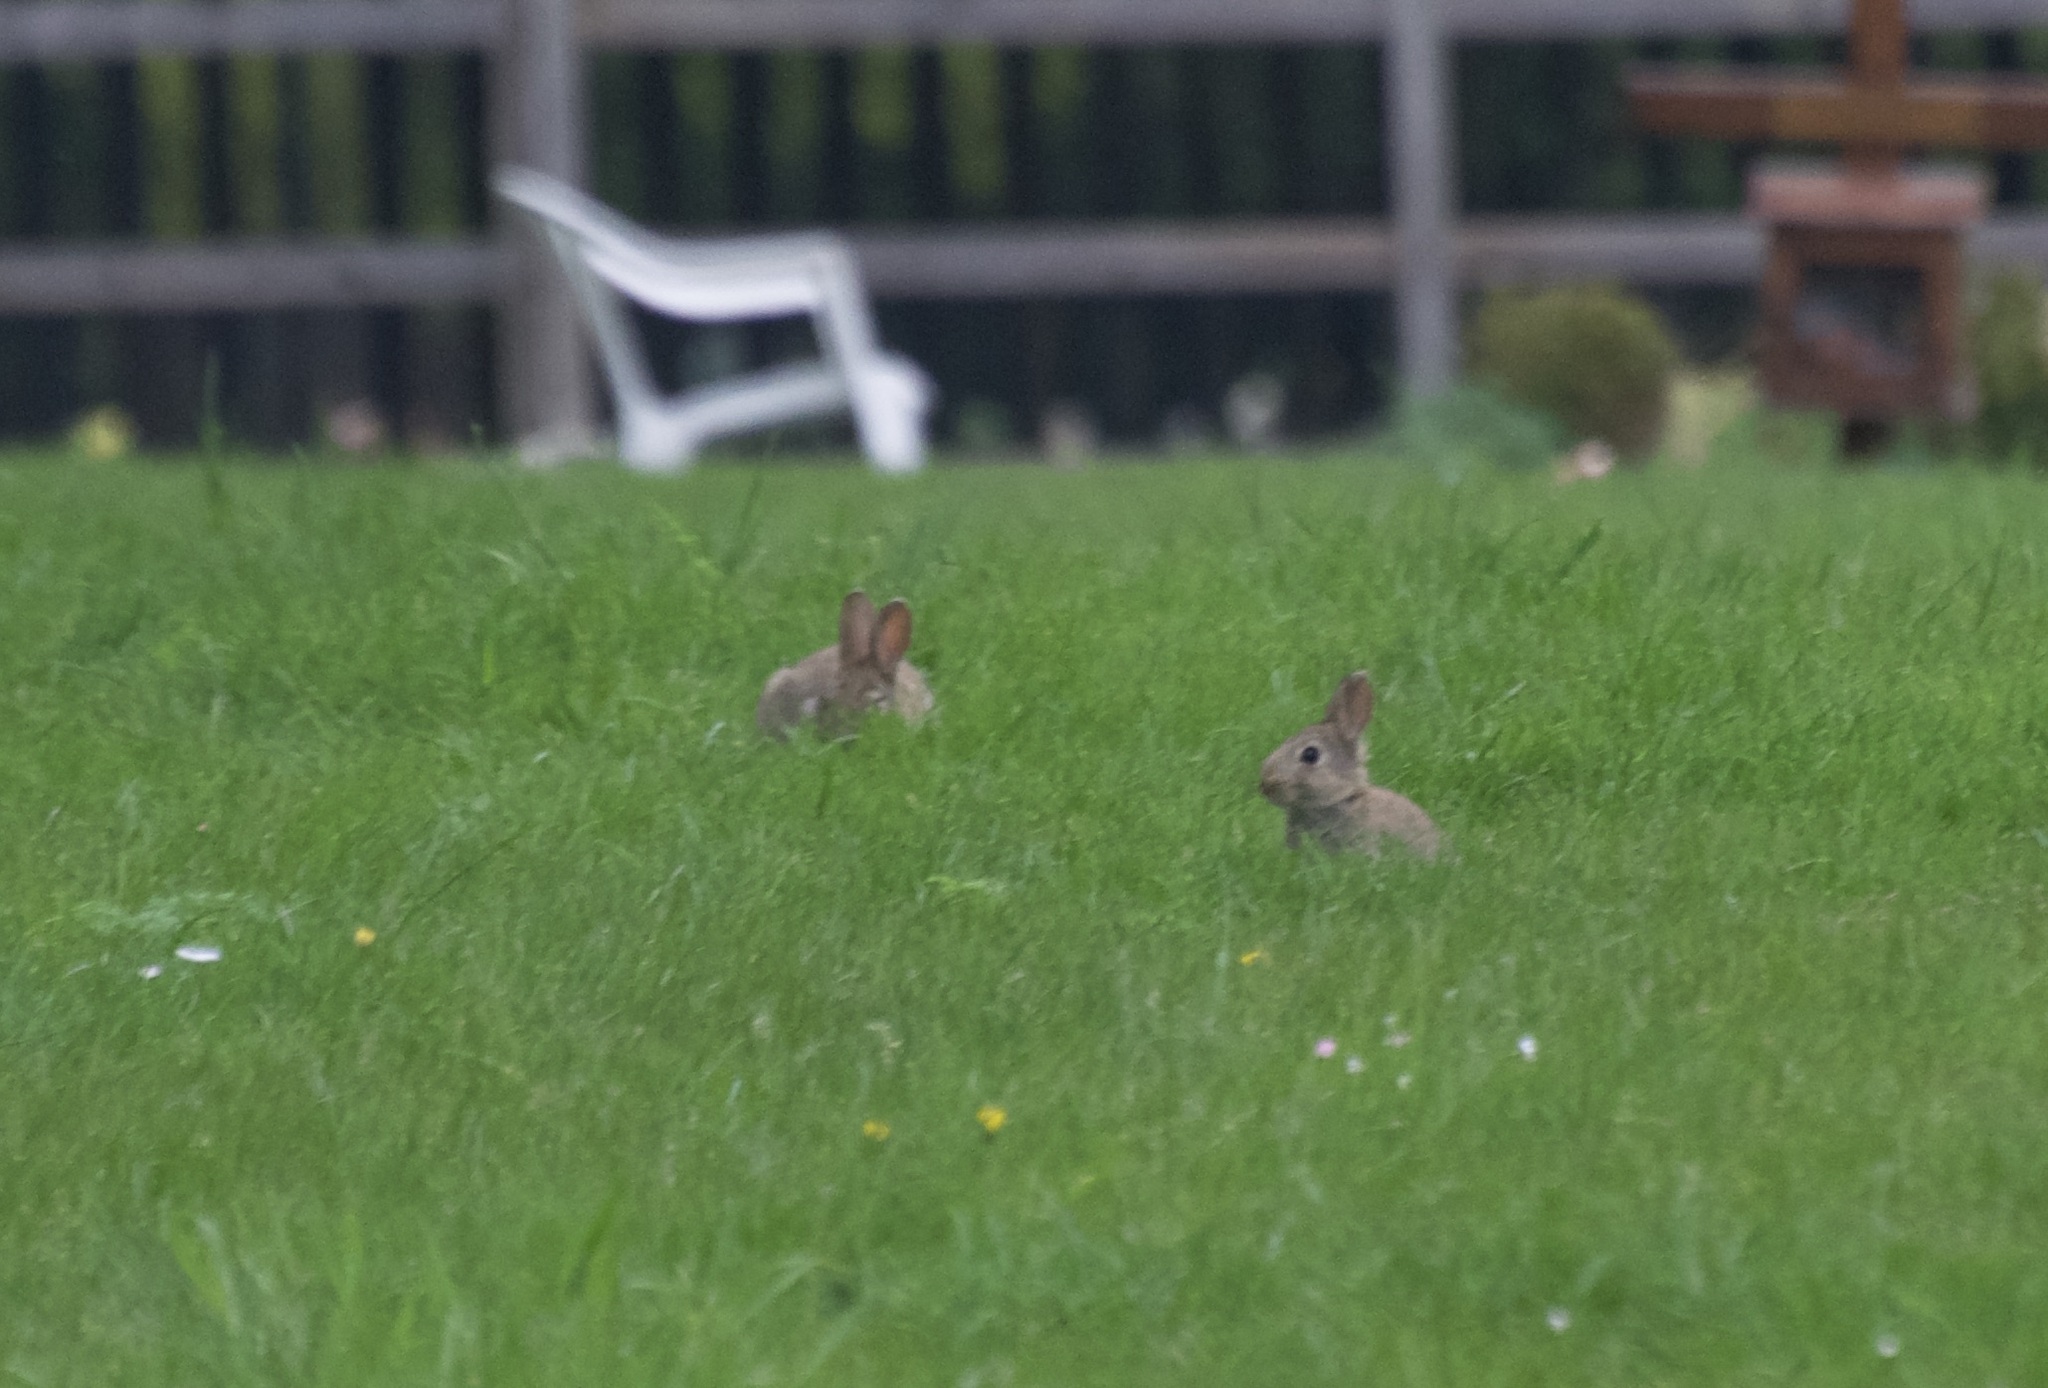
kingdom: Animalia
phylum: Chordata
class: Mammalia
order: Lagomorpha
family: Leporidae
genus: Oryctolagus
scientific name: Oryctolagus cuniculus
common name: European rabbit
